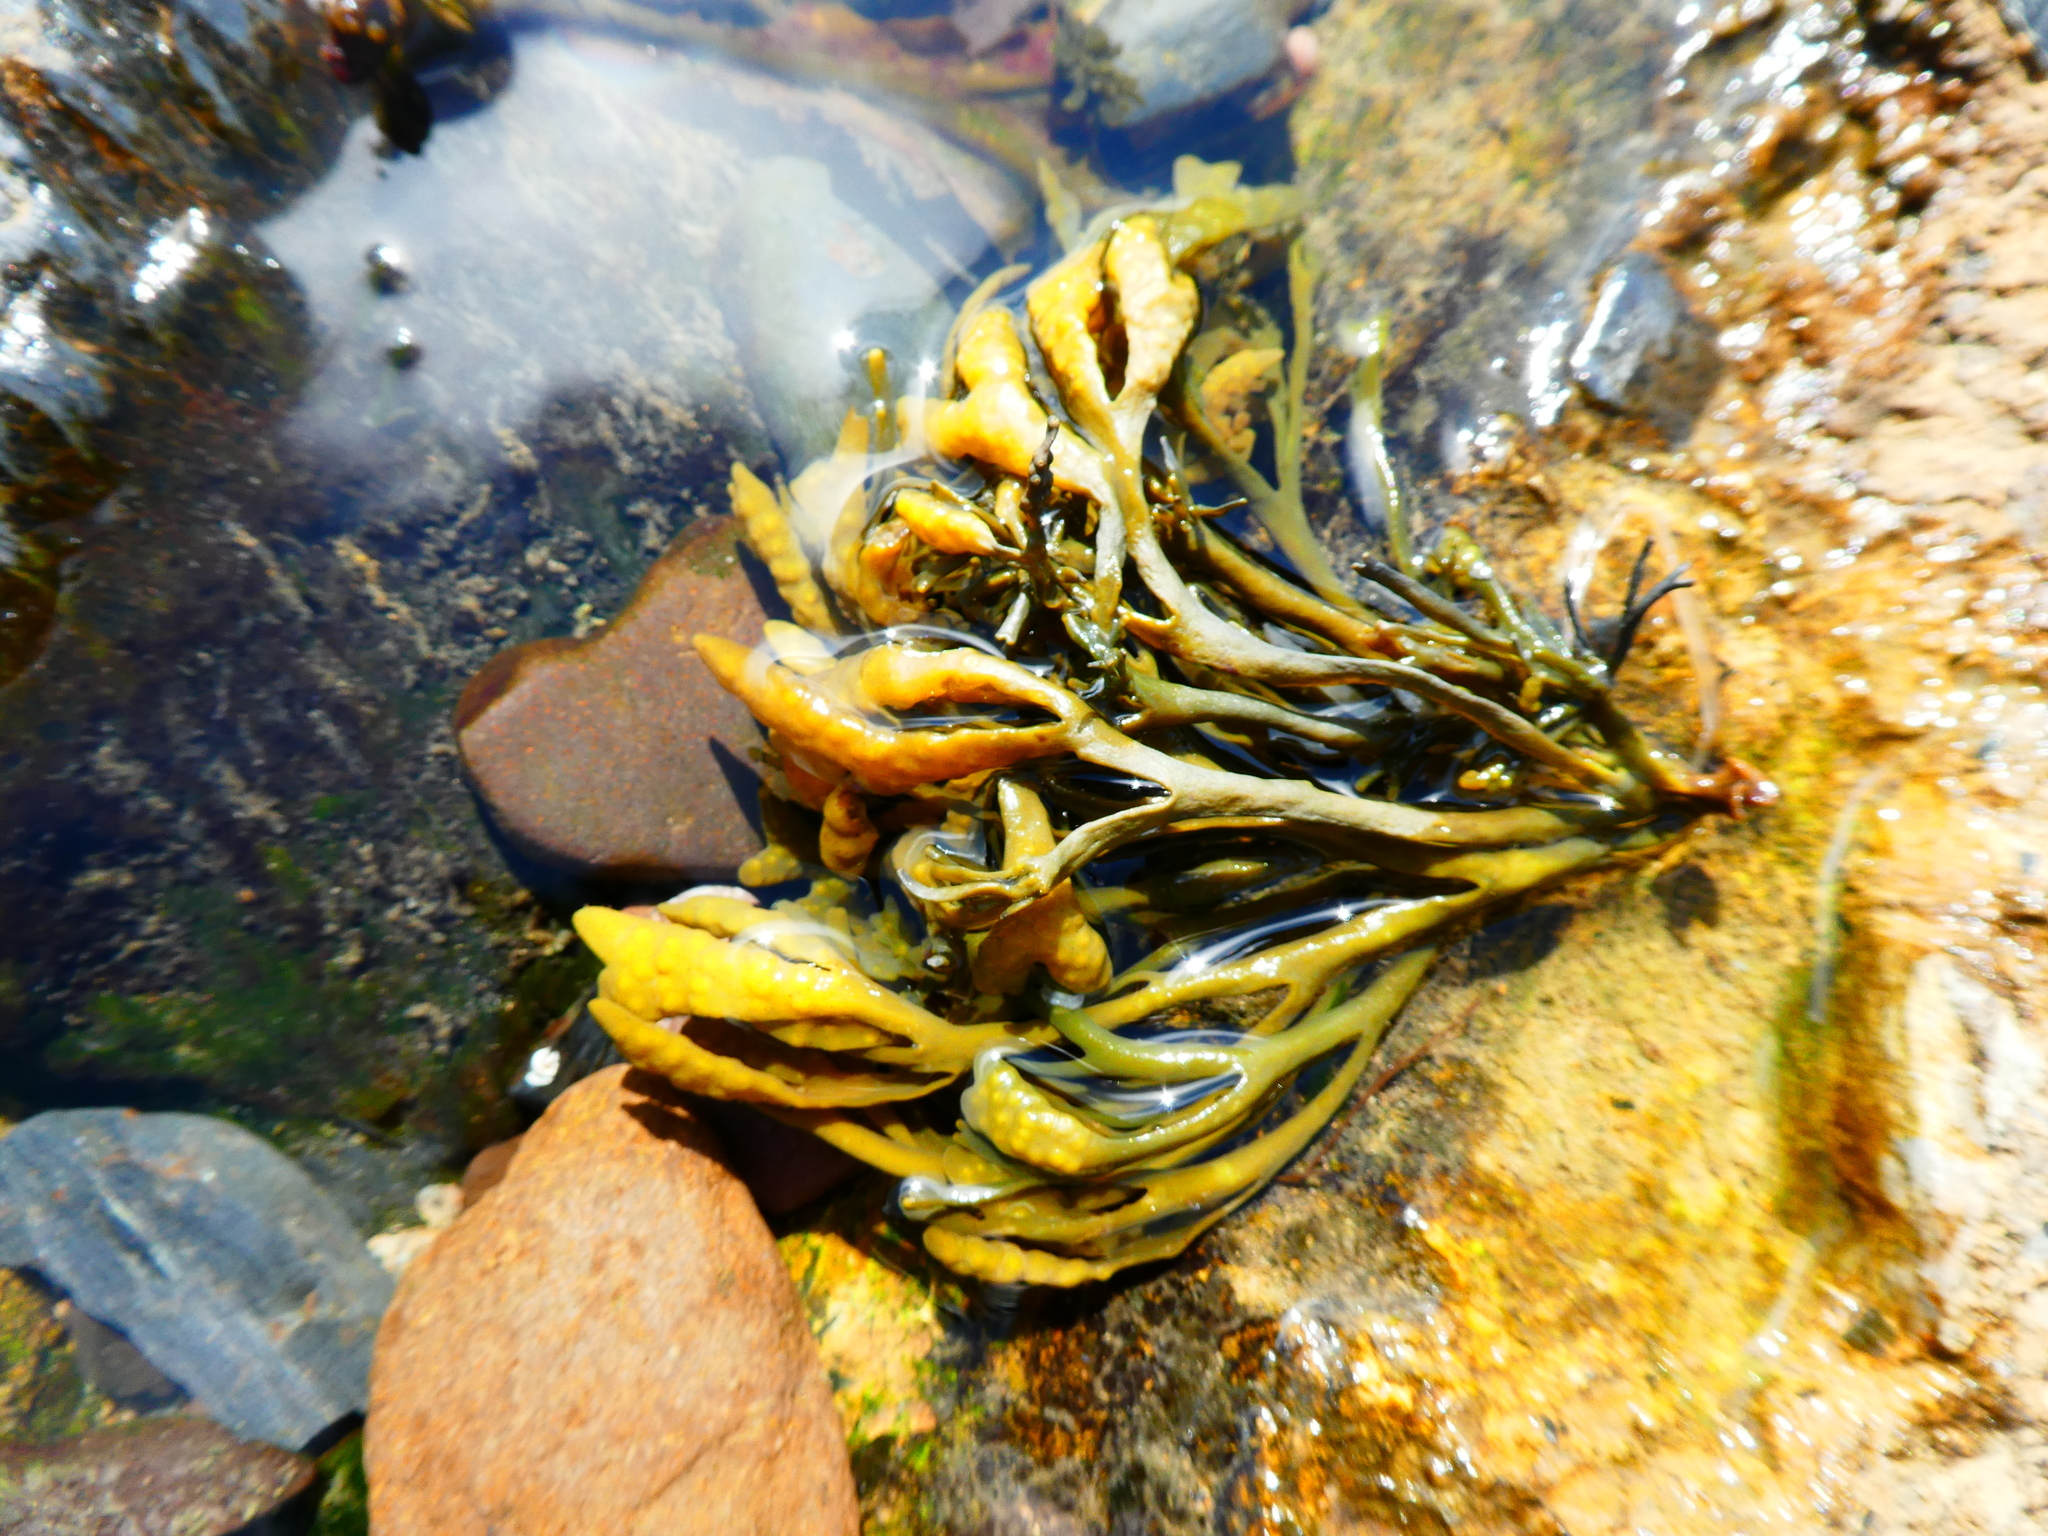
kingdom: Chromista
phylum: Ochrophyta
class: Phaeophyceae
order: Fucales
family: Fucaceae
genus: Pelvetia
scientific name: Pelvetia canaliculata
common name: Channelled wrack
